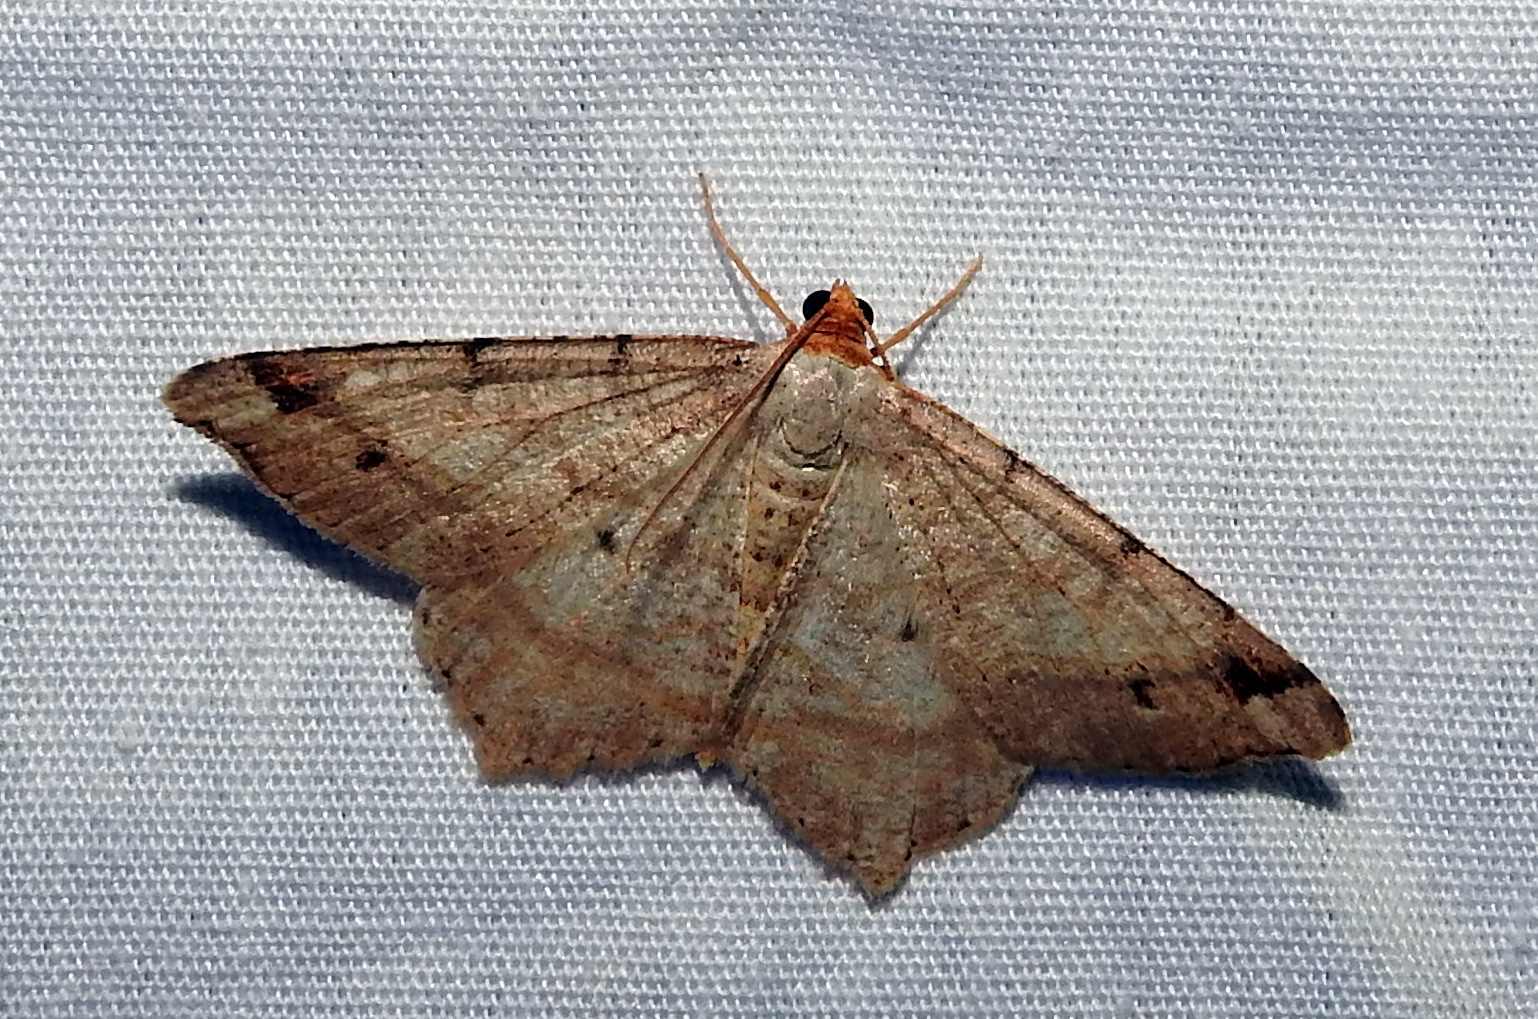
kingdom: Animalia
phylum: Arthropoda
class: Insecta
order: Lepidoptera
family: Geometridae
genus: Macaria
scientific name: Macaria bisignata
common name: Red-headed inchworm
